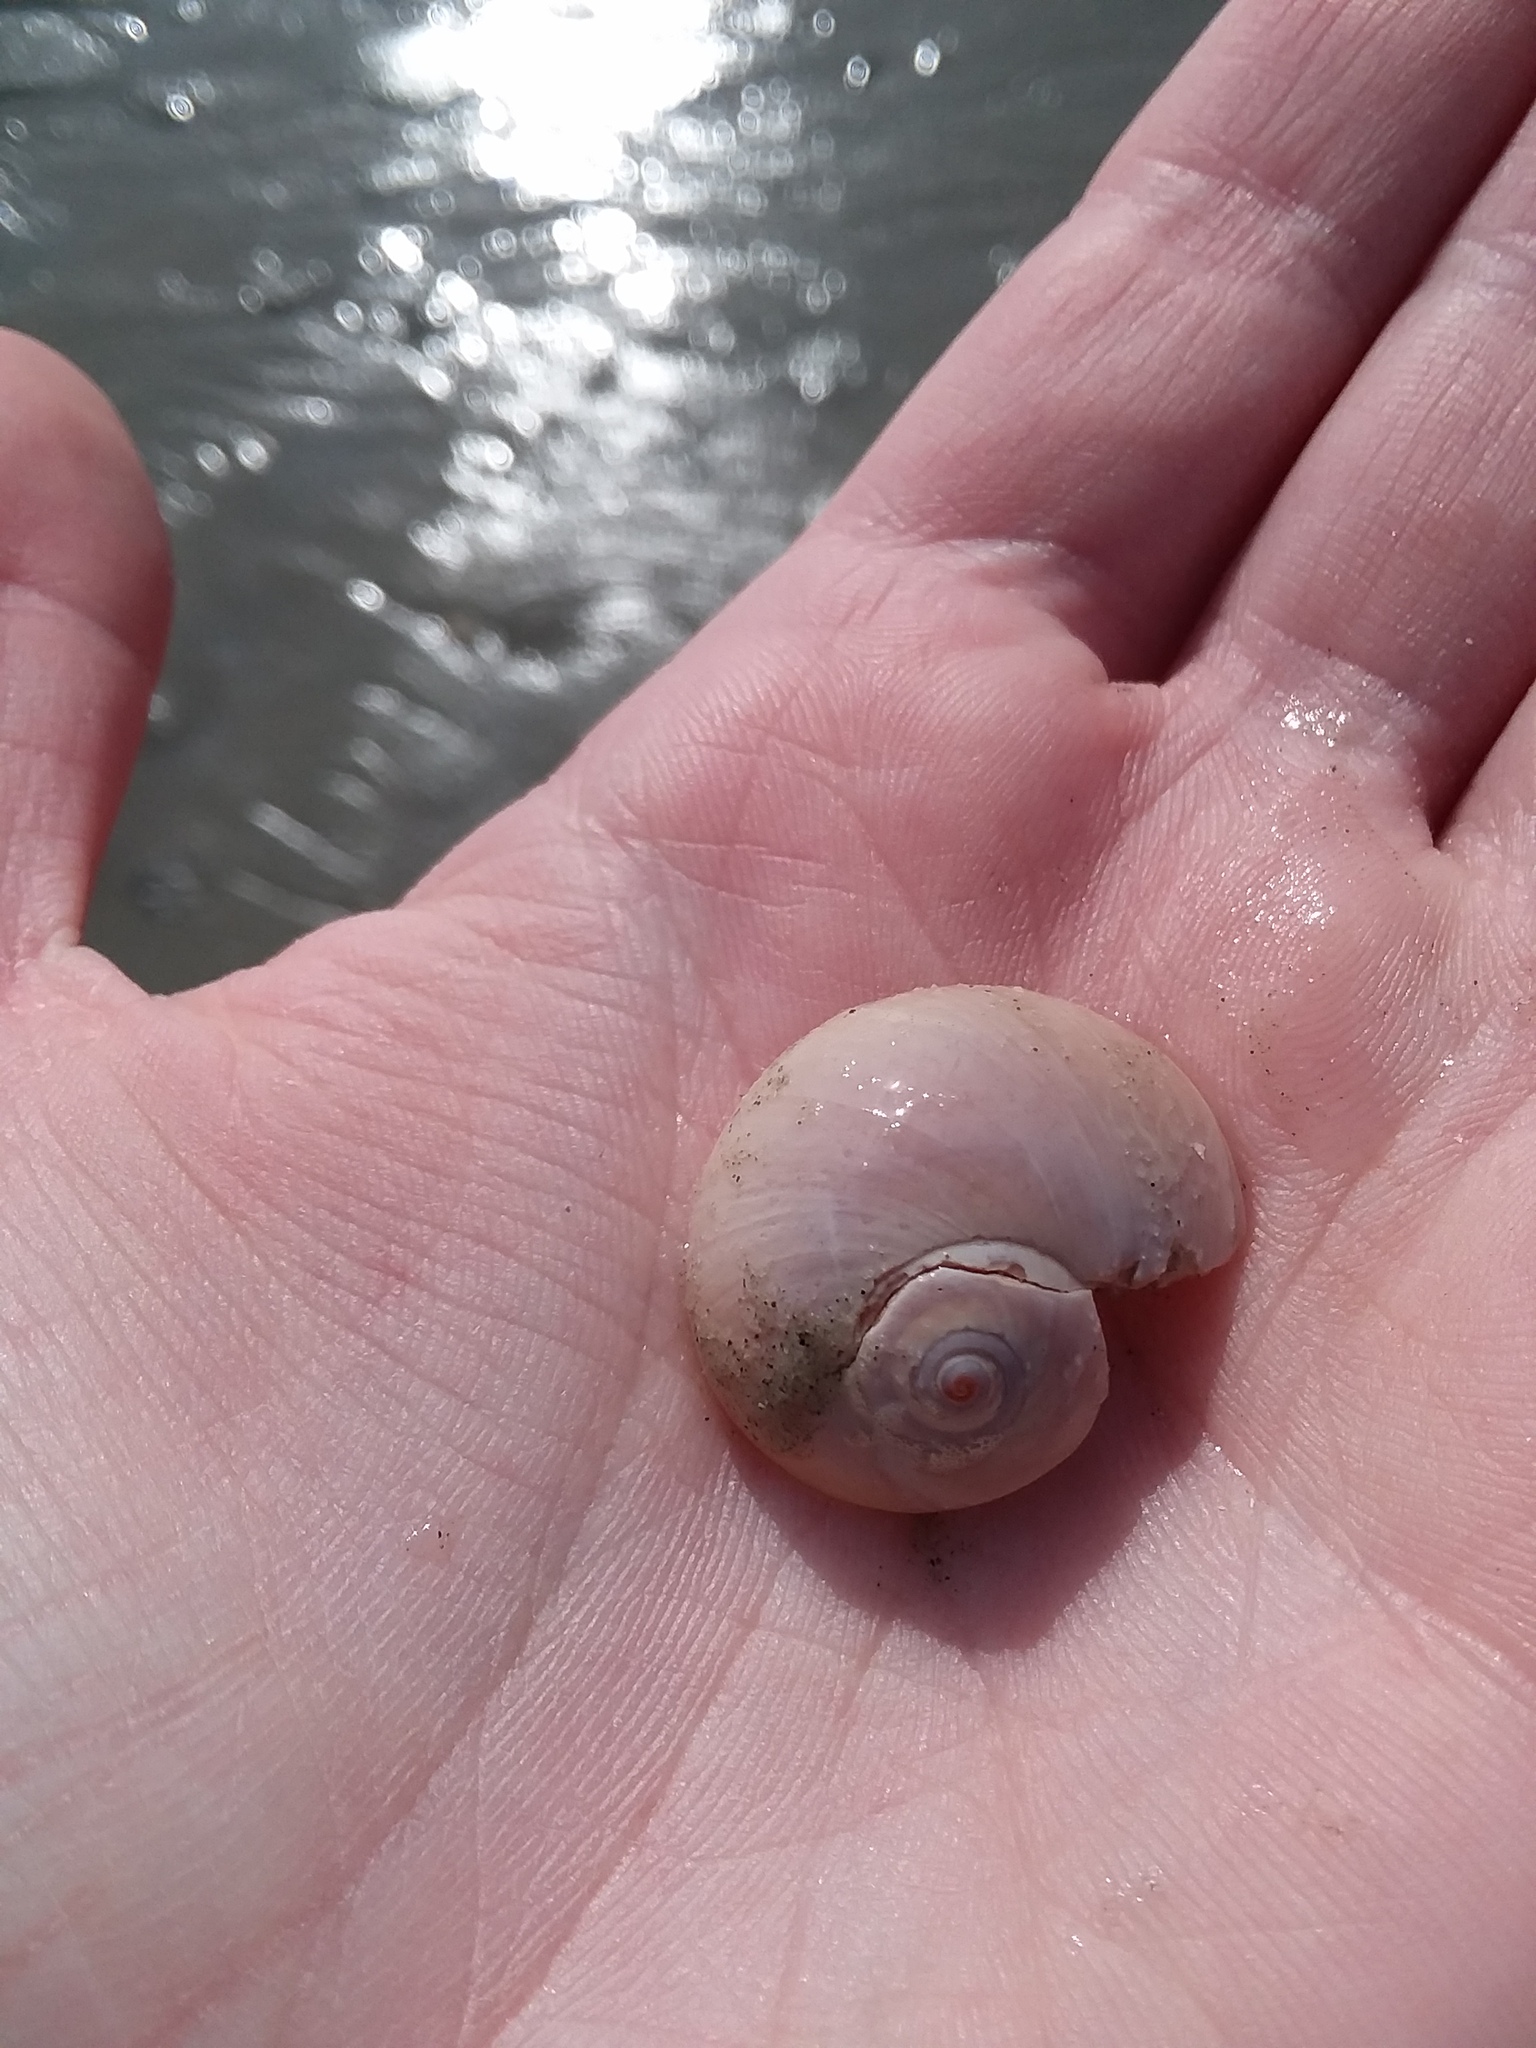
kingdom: Animalia
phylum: Mollusca
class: Gastropoda
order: Littorinimorpha
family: Naticidae
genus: Neverita
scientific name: Neverita duplicata
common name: Lobed moonsnail
